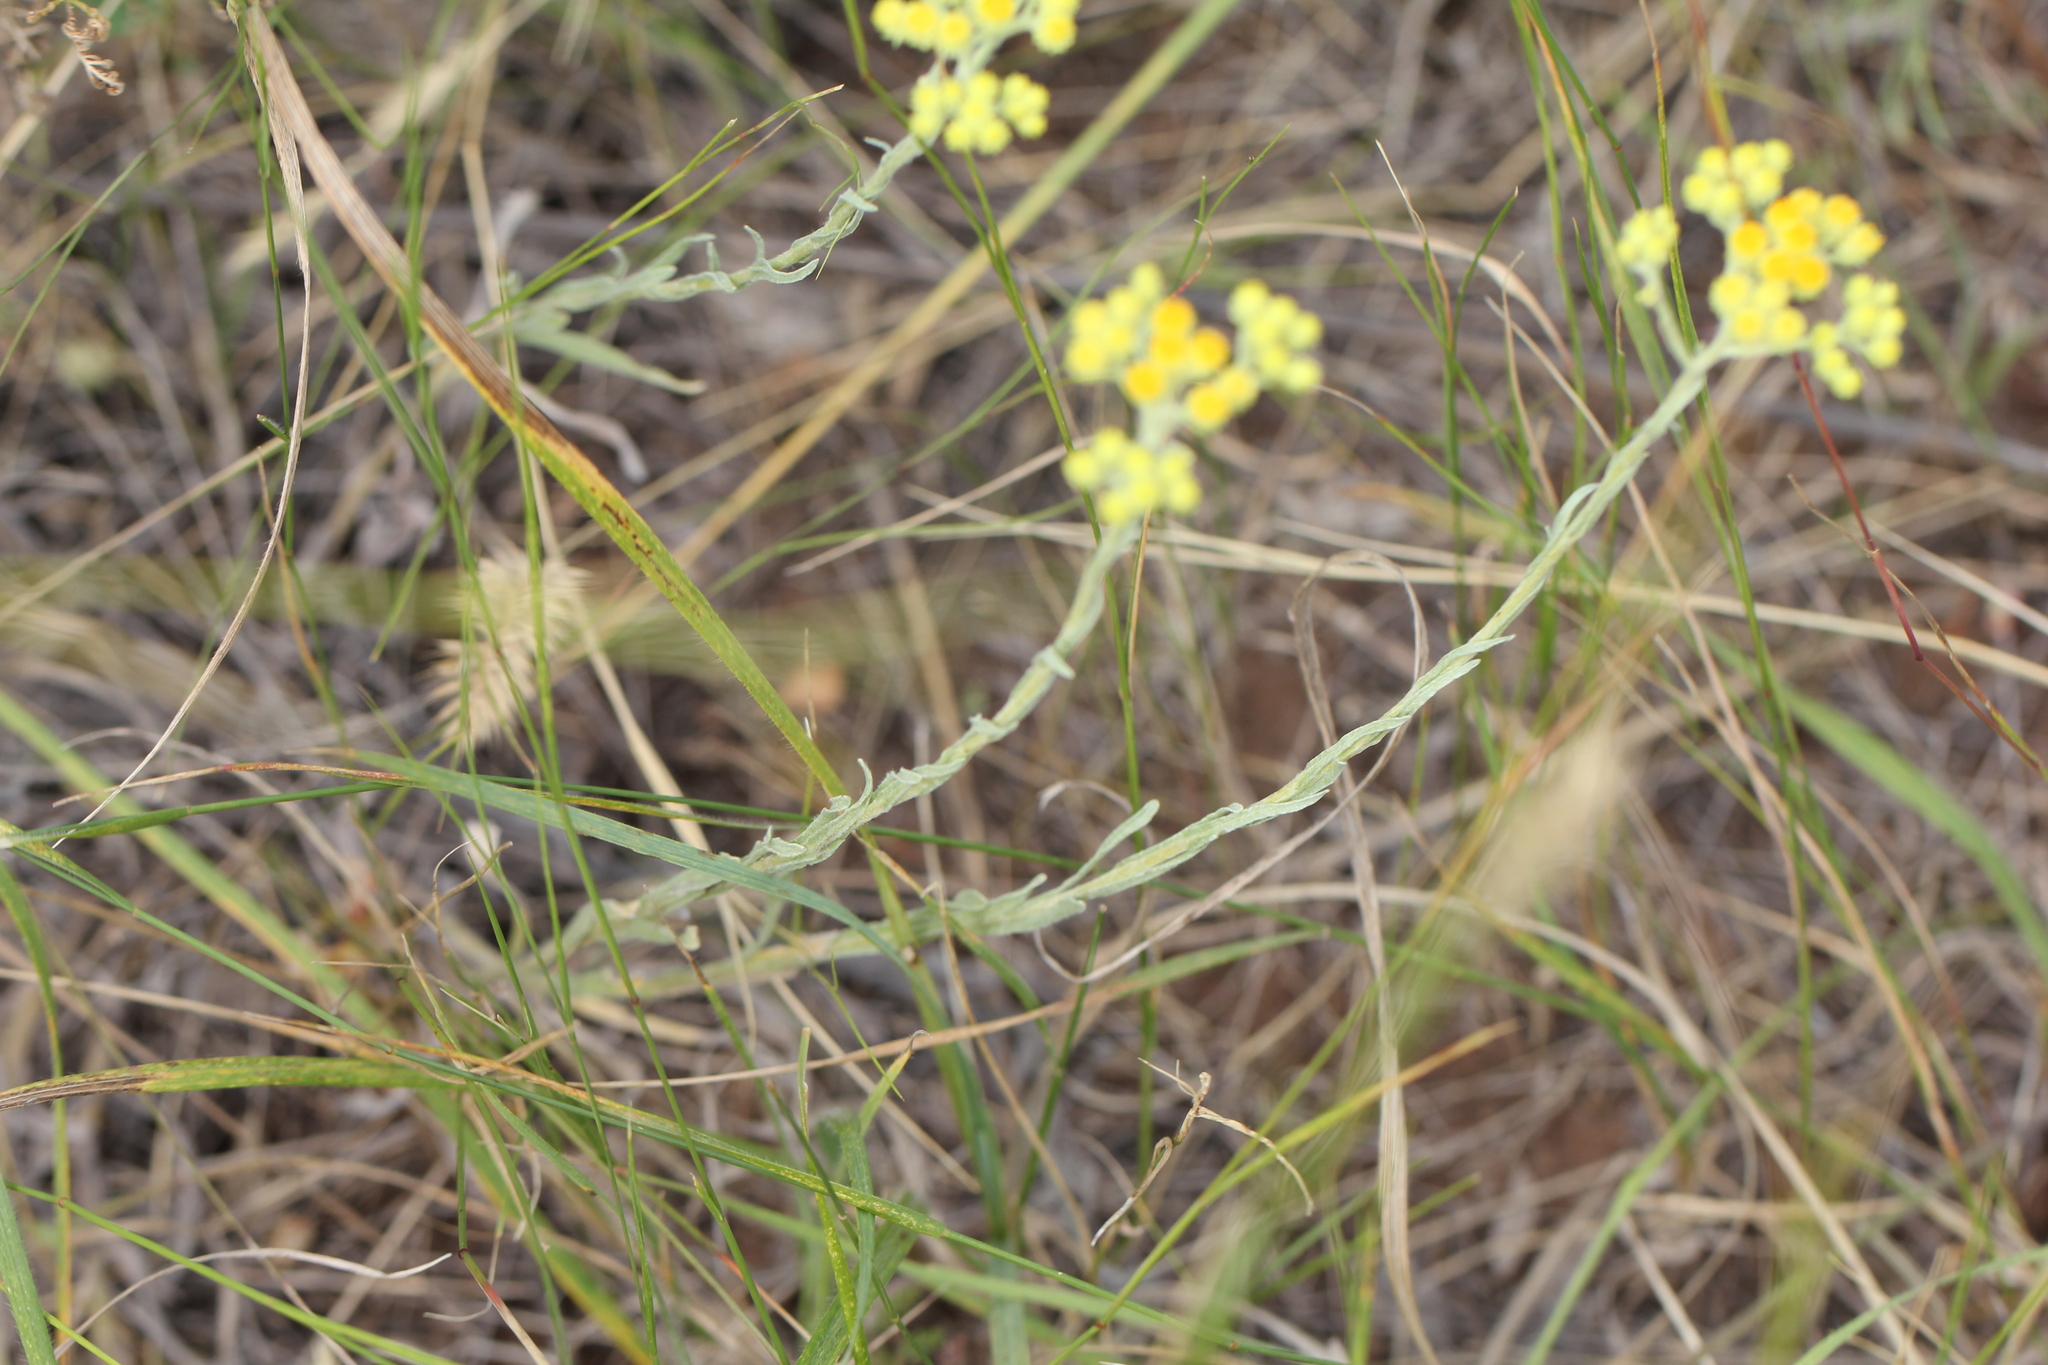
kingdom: Plantae
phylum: Tracheophyta
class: Magnoliopsida
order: Asterales
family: Asteraceae
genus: Helichrysum
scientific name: Helichrysum arenarium
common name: Strawflower
